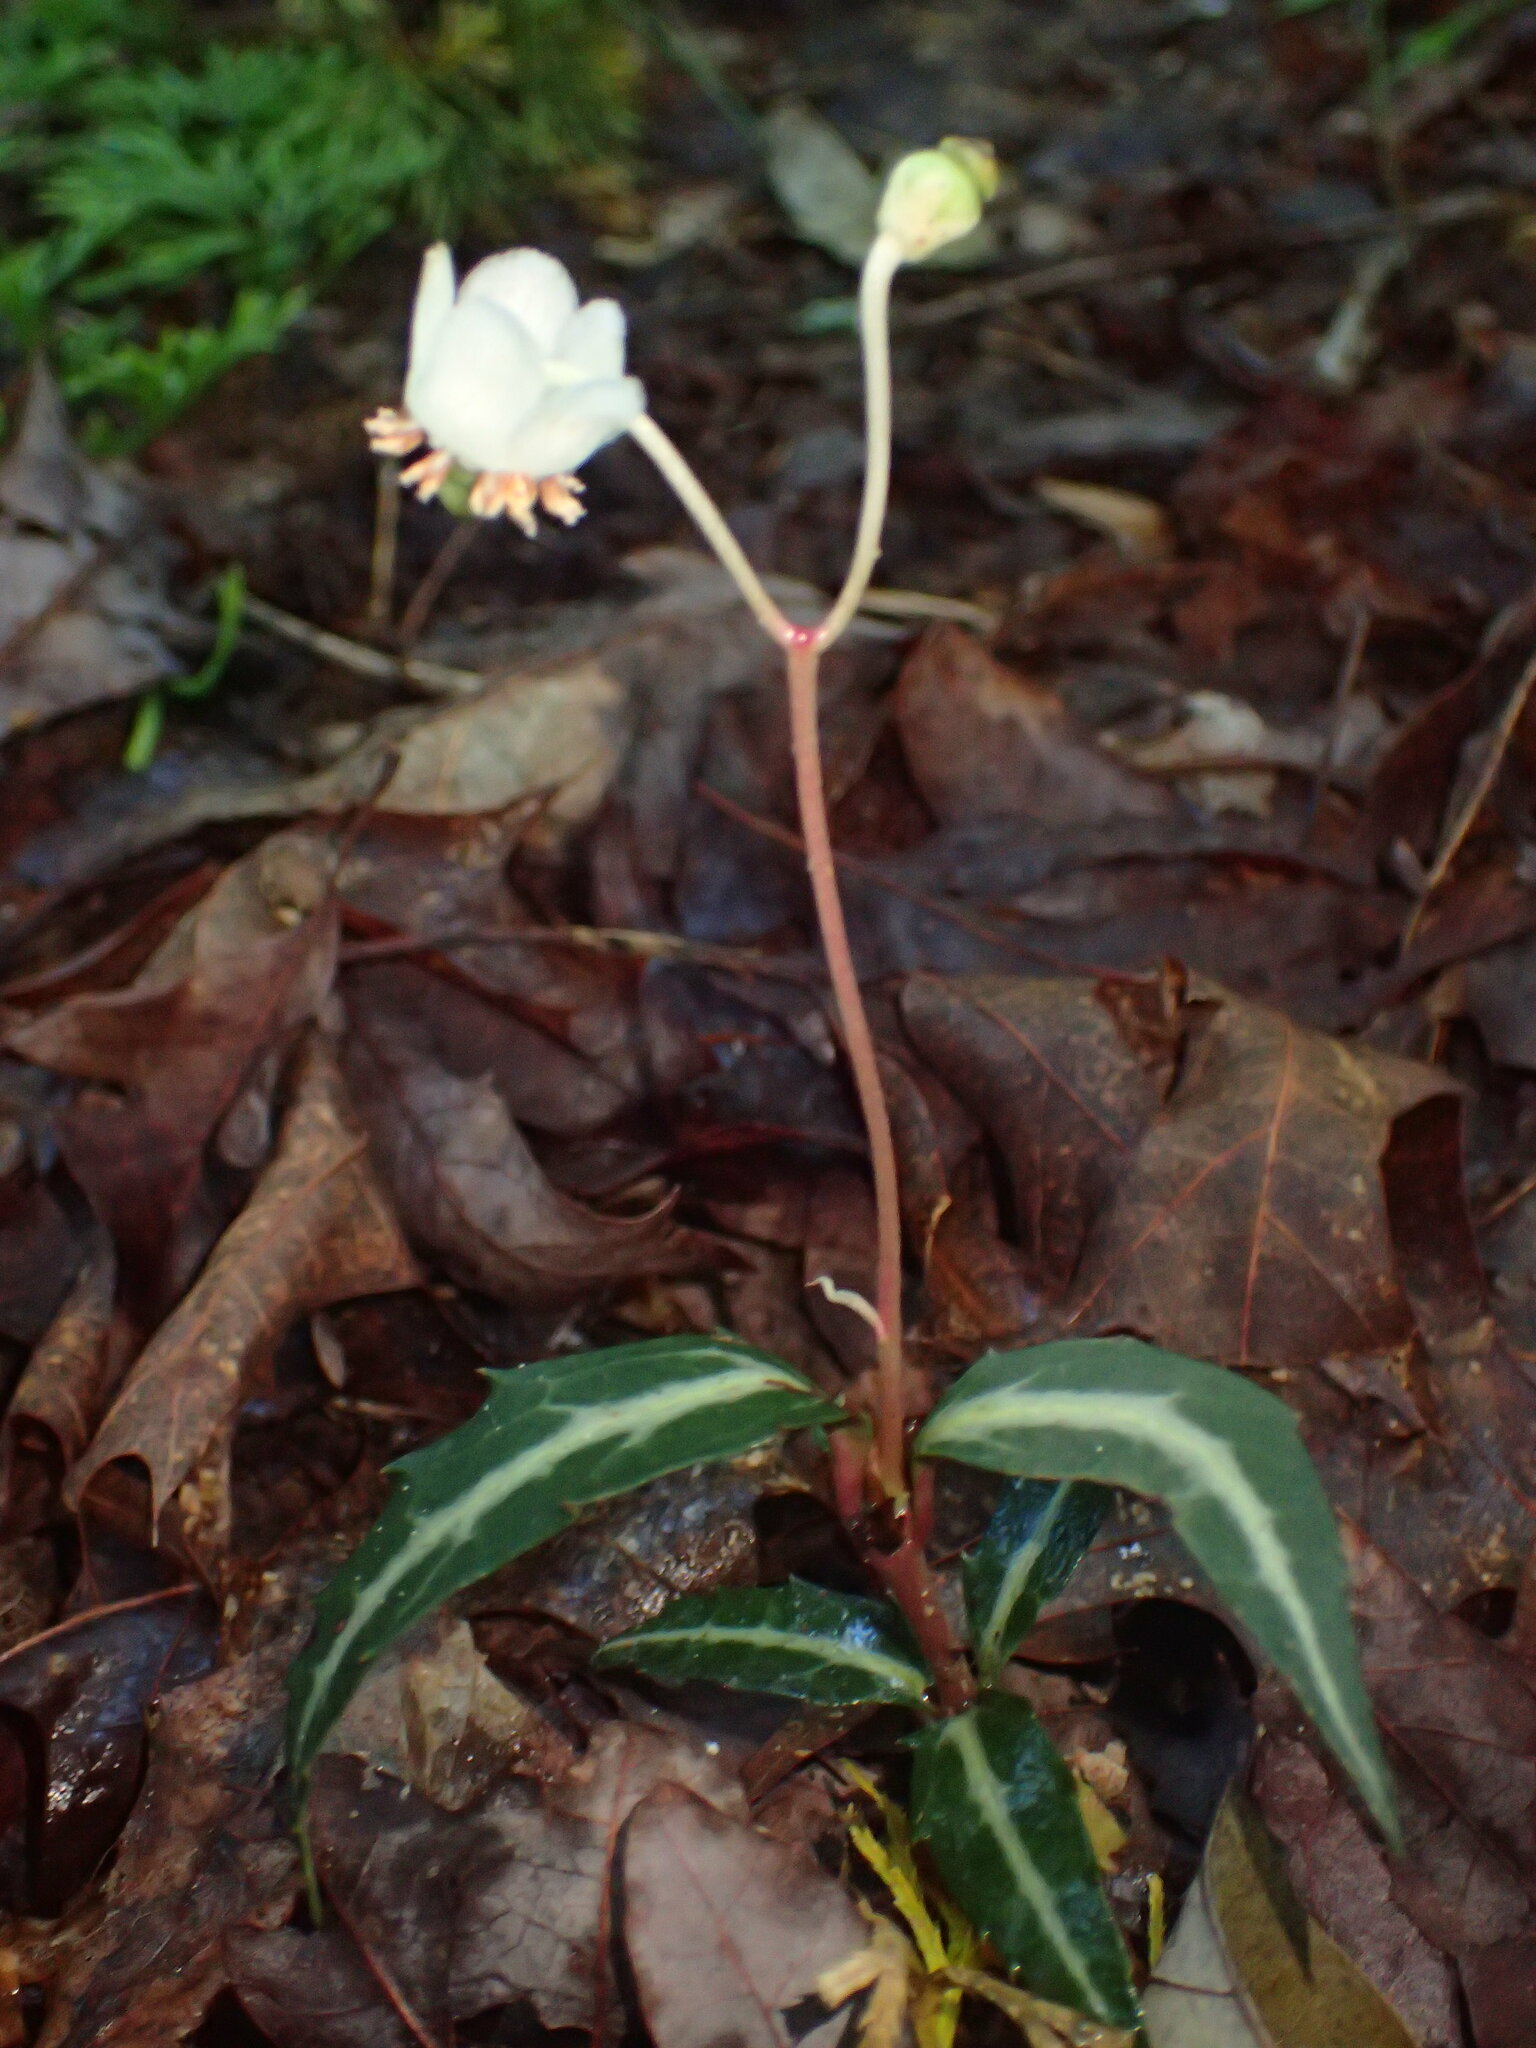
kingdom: Plantae
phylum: Tracheophyta
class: Magnoliopsida
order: Ericales
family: Ericaceae
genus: Chimaphila
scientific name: Chimaphila maculata
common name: Spotted pipsissewa
